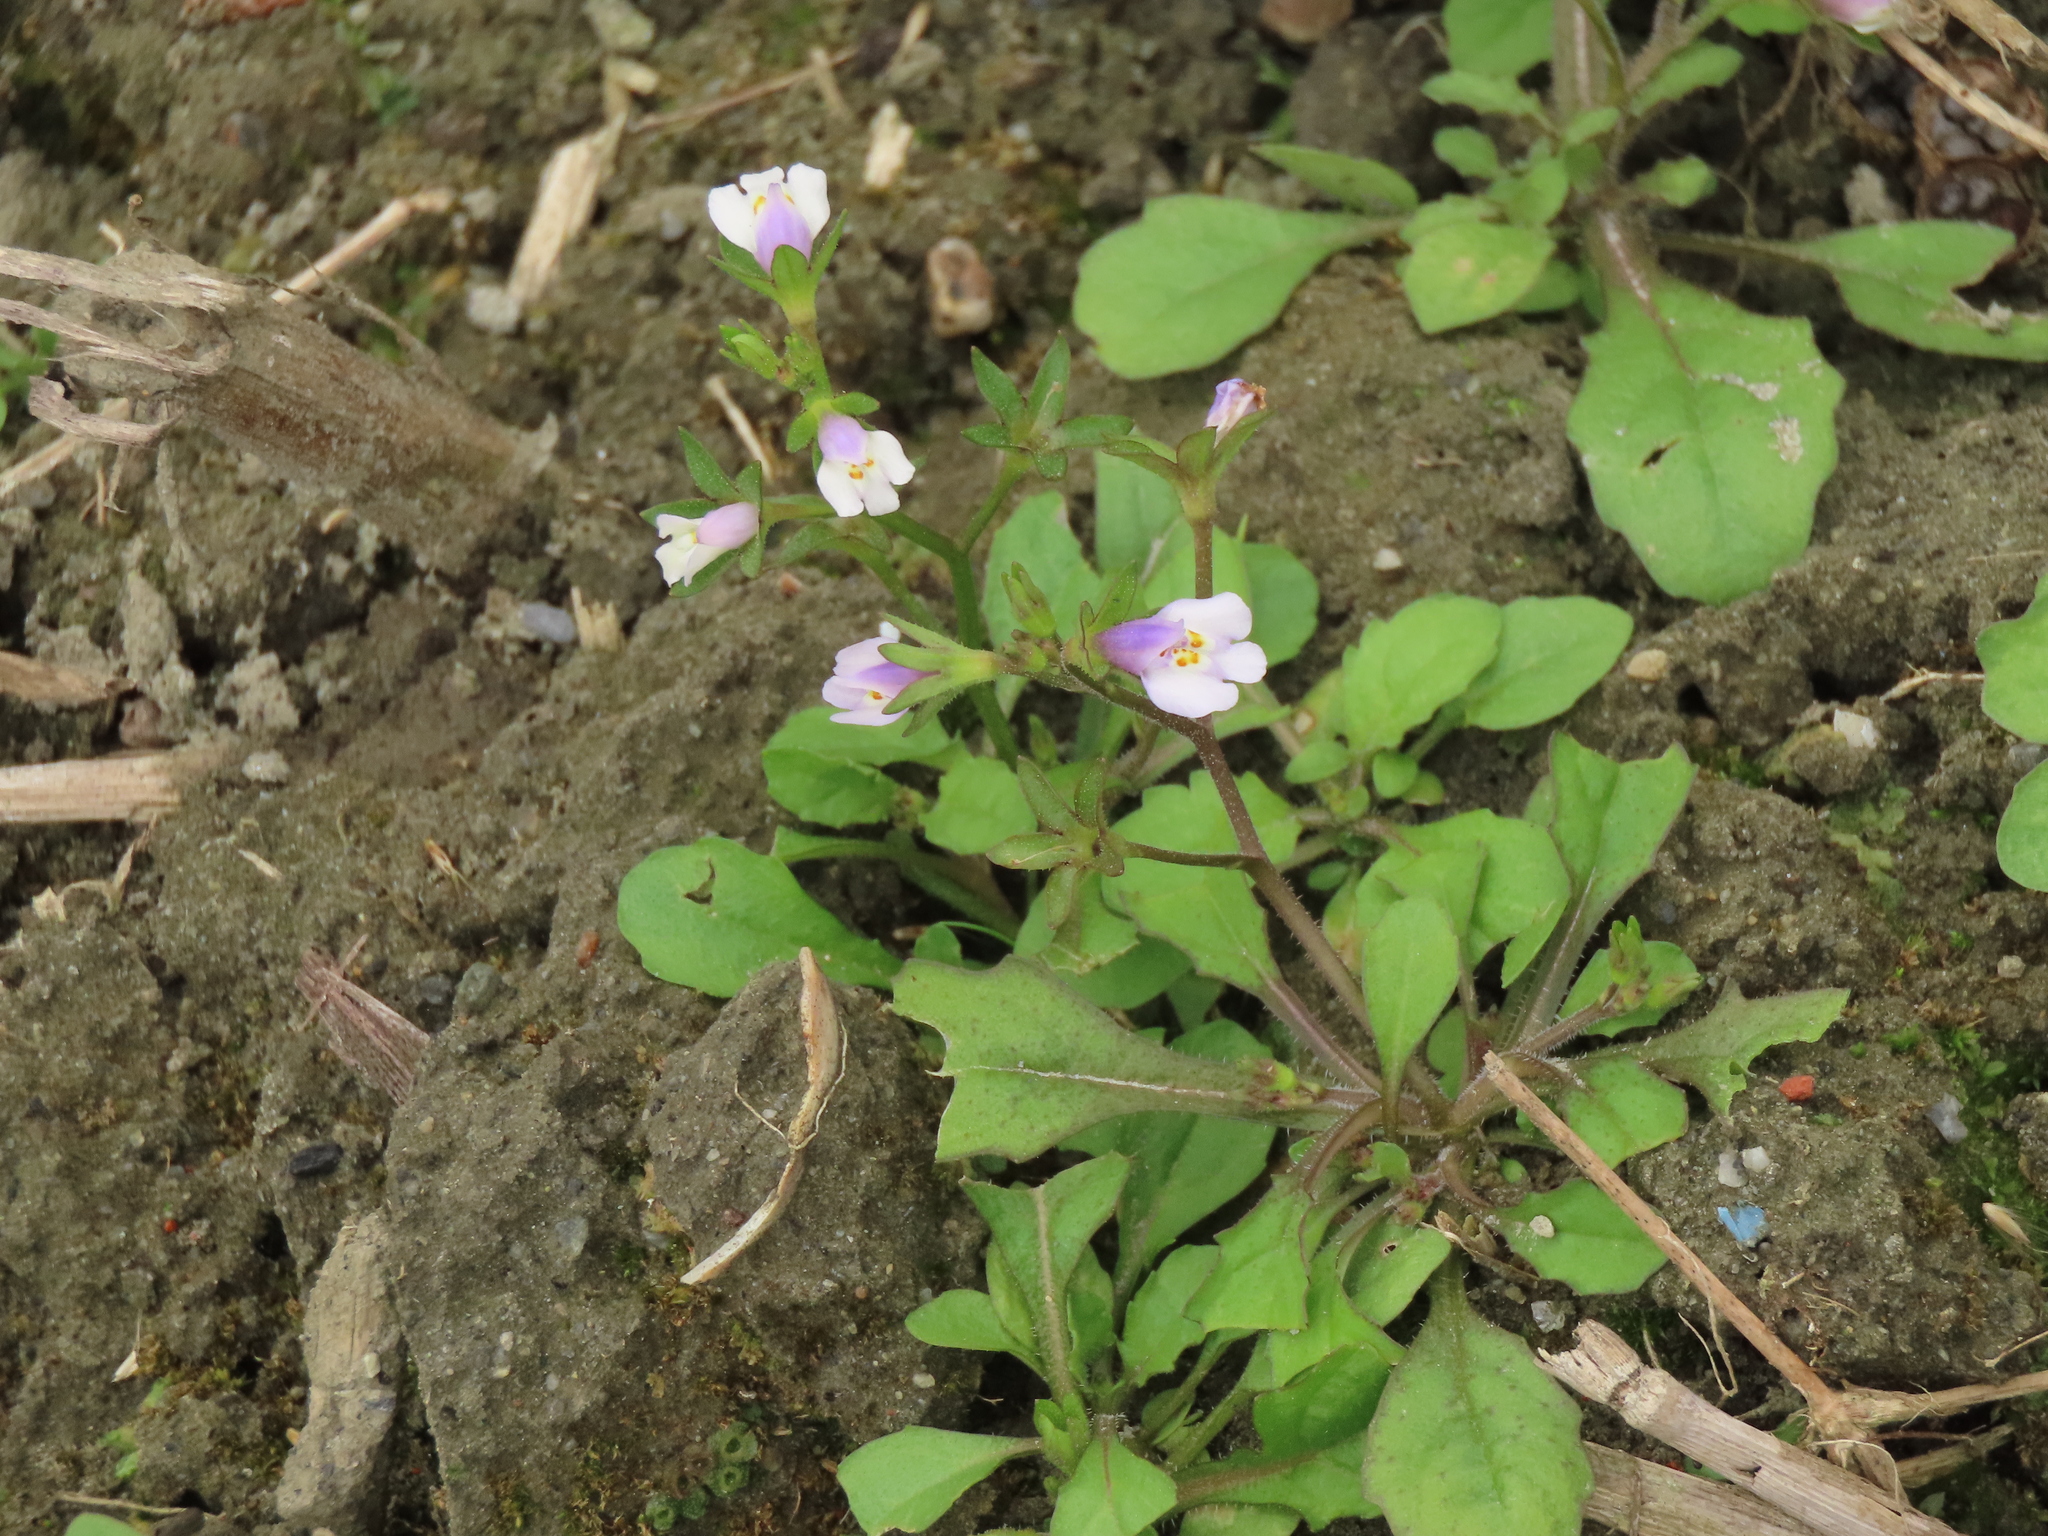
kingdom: Plantae
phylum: Tracheophyta
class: Magnoliopsida
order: Lamiales
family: Mazaceae
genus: Mazus
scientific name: Mazus pumilus
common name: Japanese mazus
